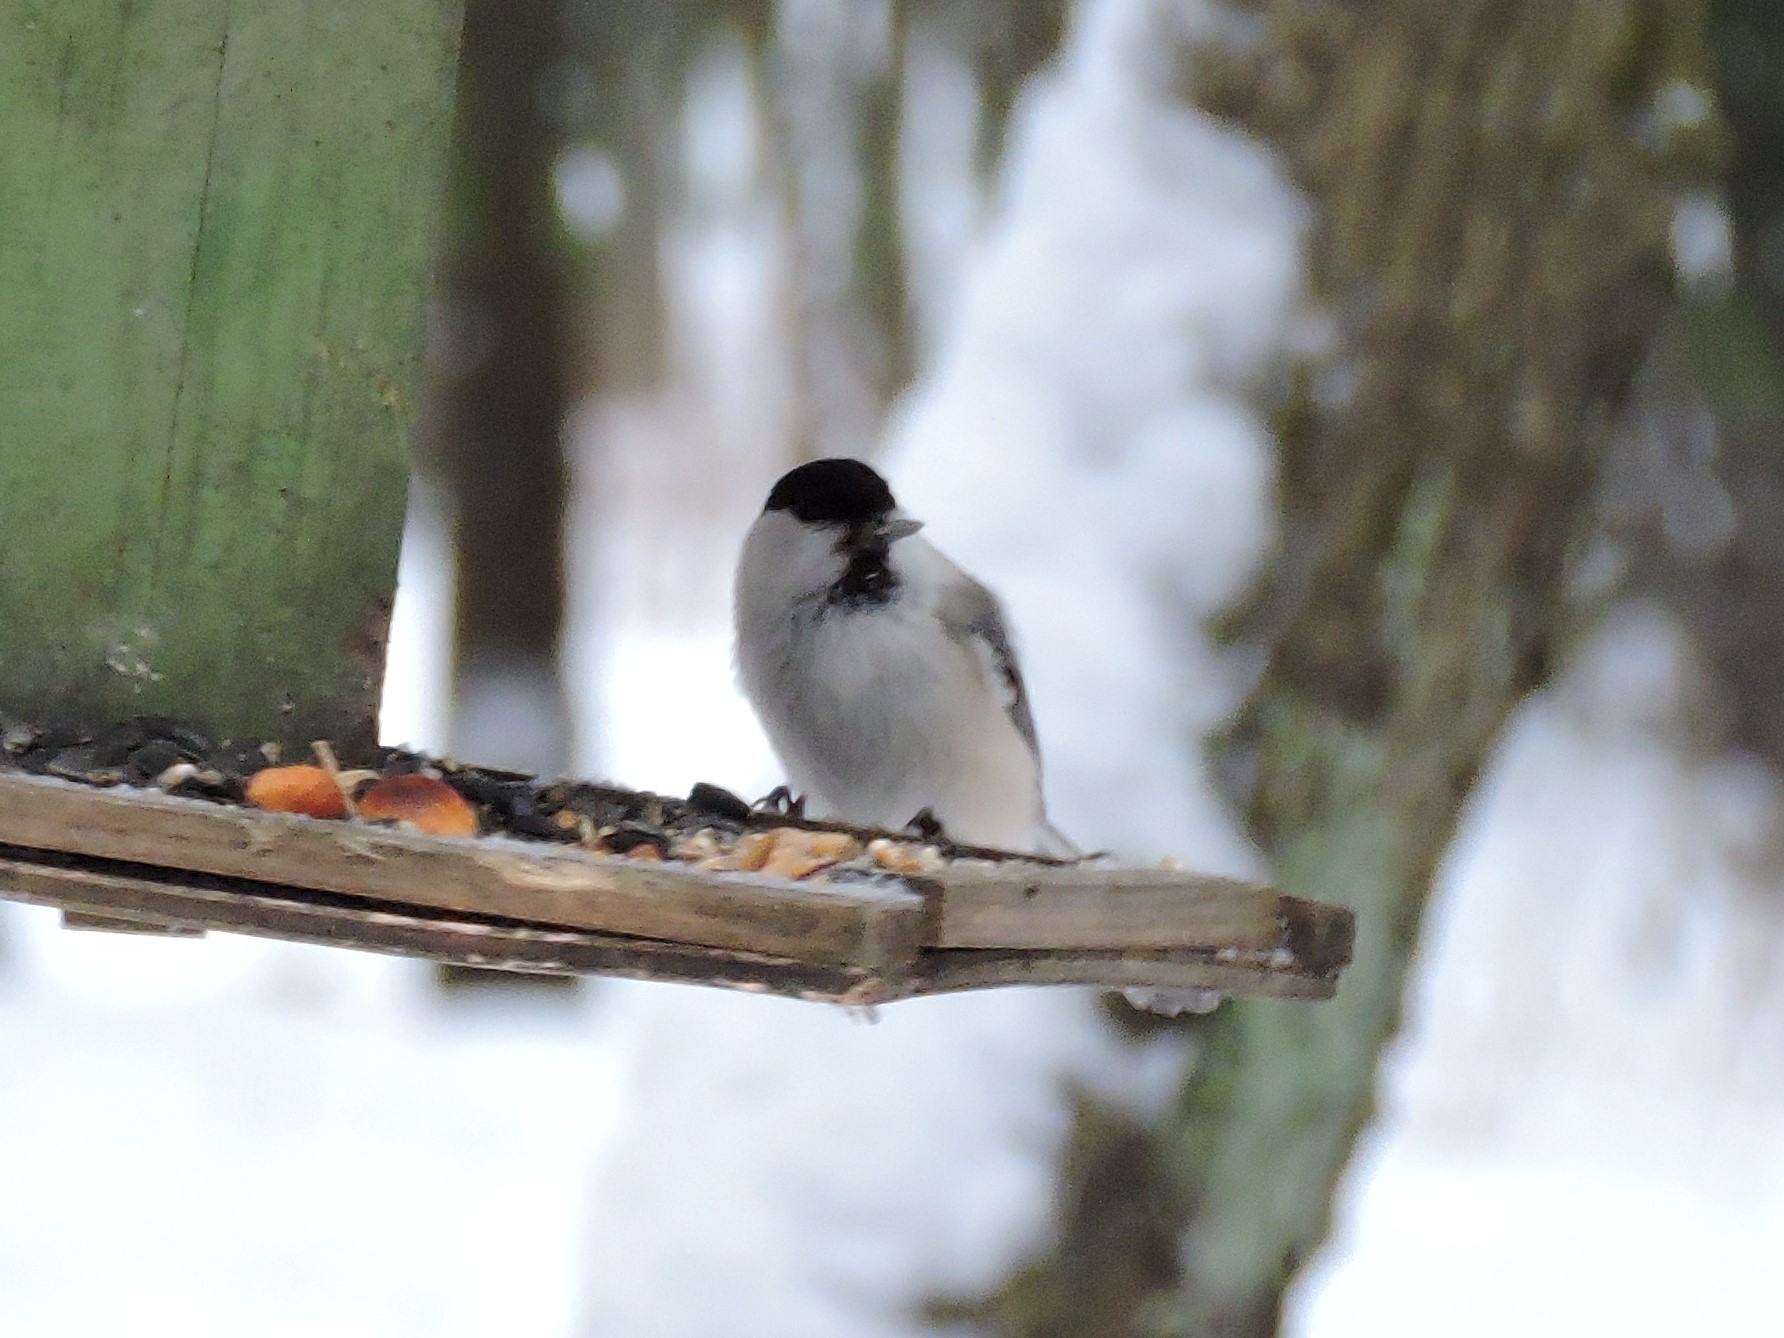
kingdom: Animalia
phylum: Chordata
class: Aves
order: Passeriformes
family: Paridae
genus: Poecile
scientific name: Poecile montanus
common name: Willow tit
